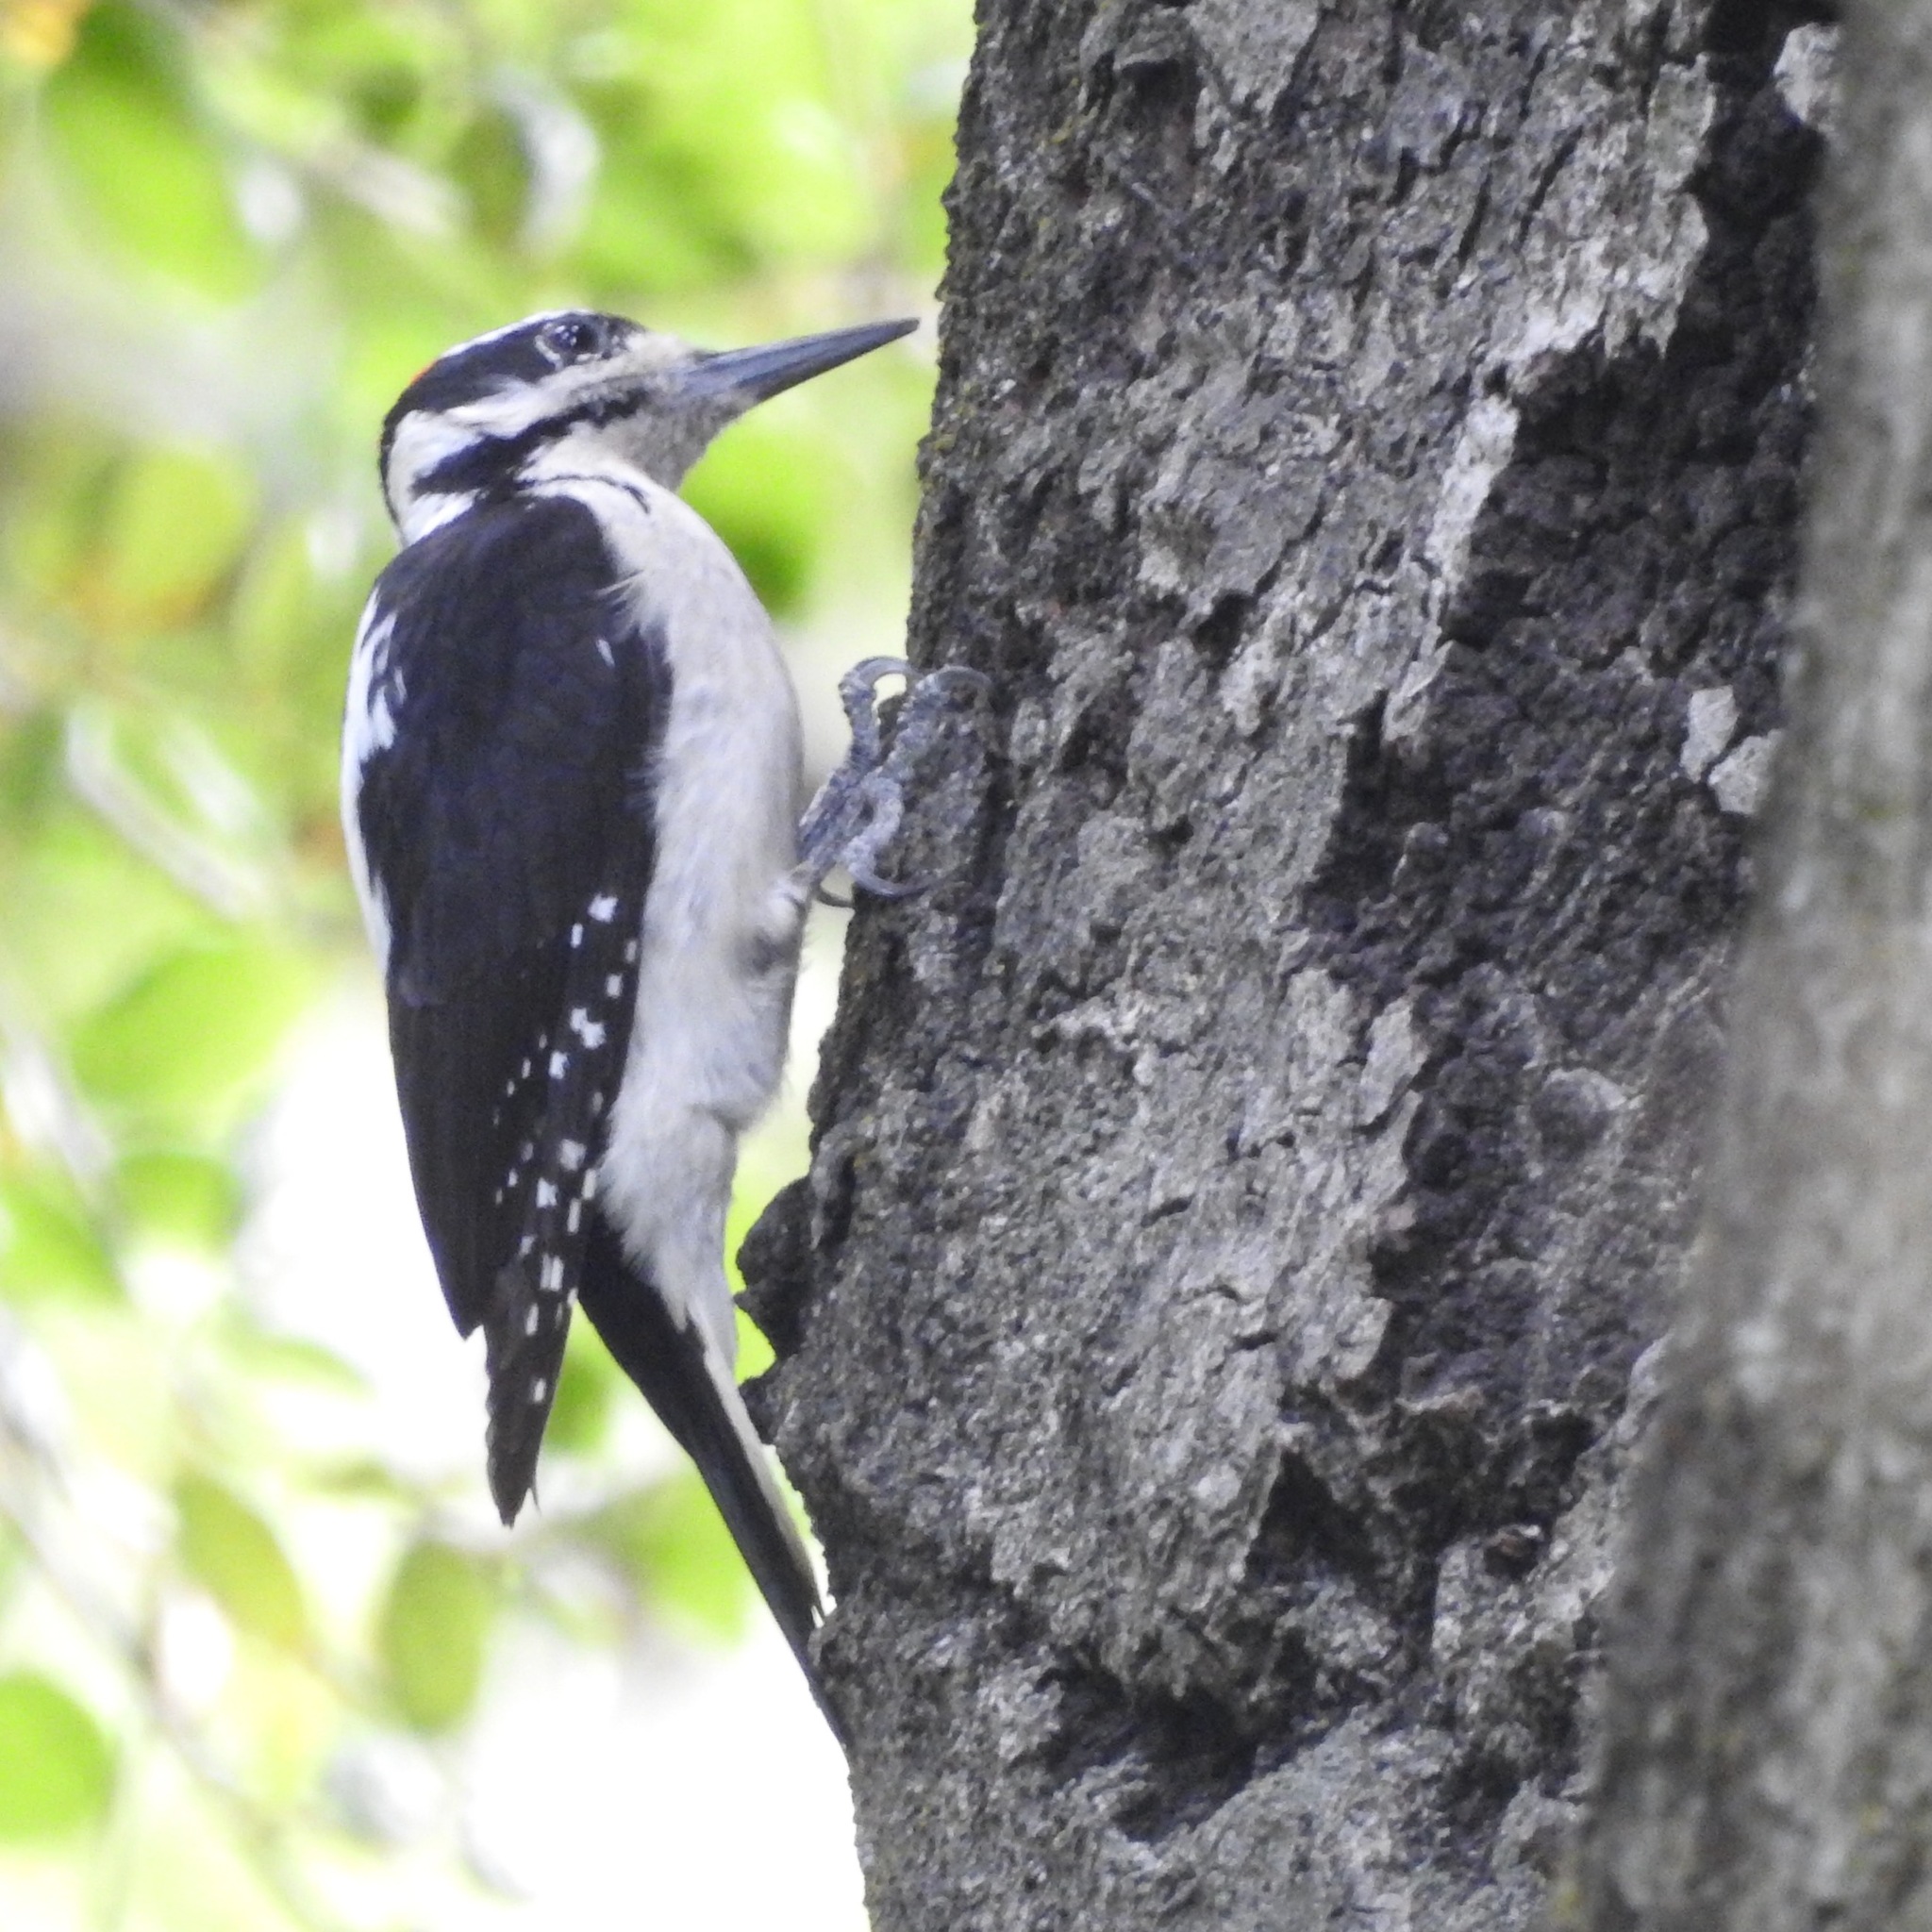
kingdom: Animalia
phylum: Chordata
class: Aves
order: Piciformes
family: Picidae
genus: Leuconotopicus
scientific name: Leuconotopicus villosus
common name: Hairy woodpecker
